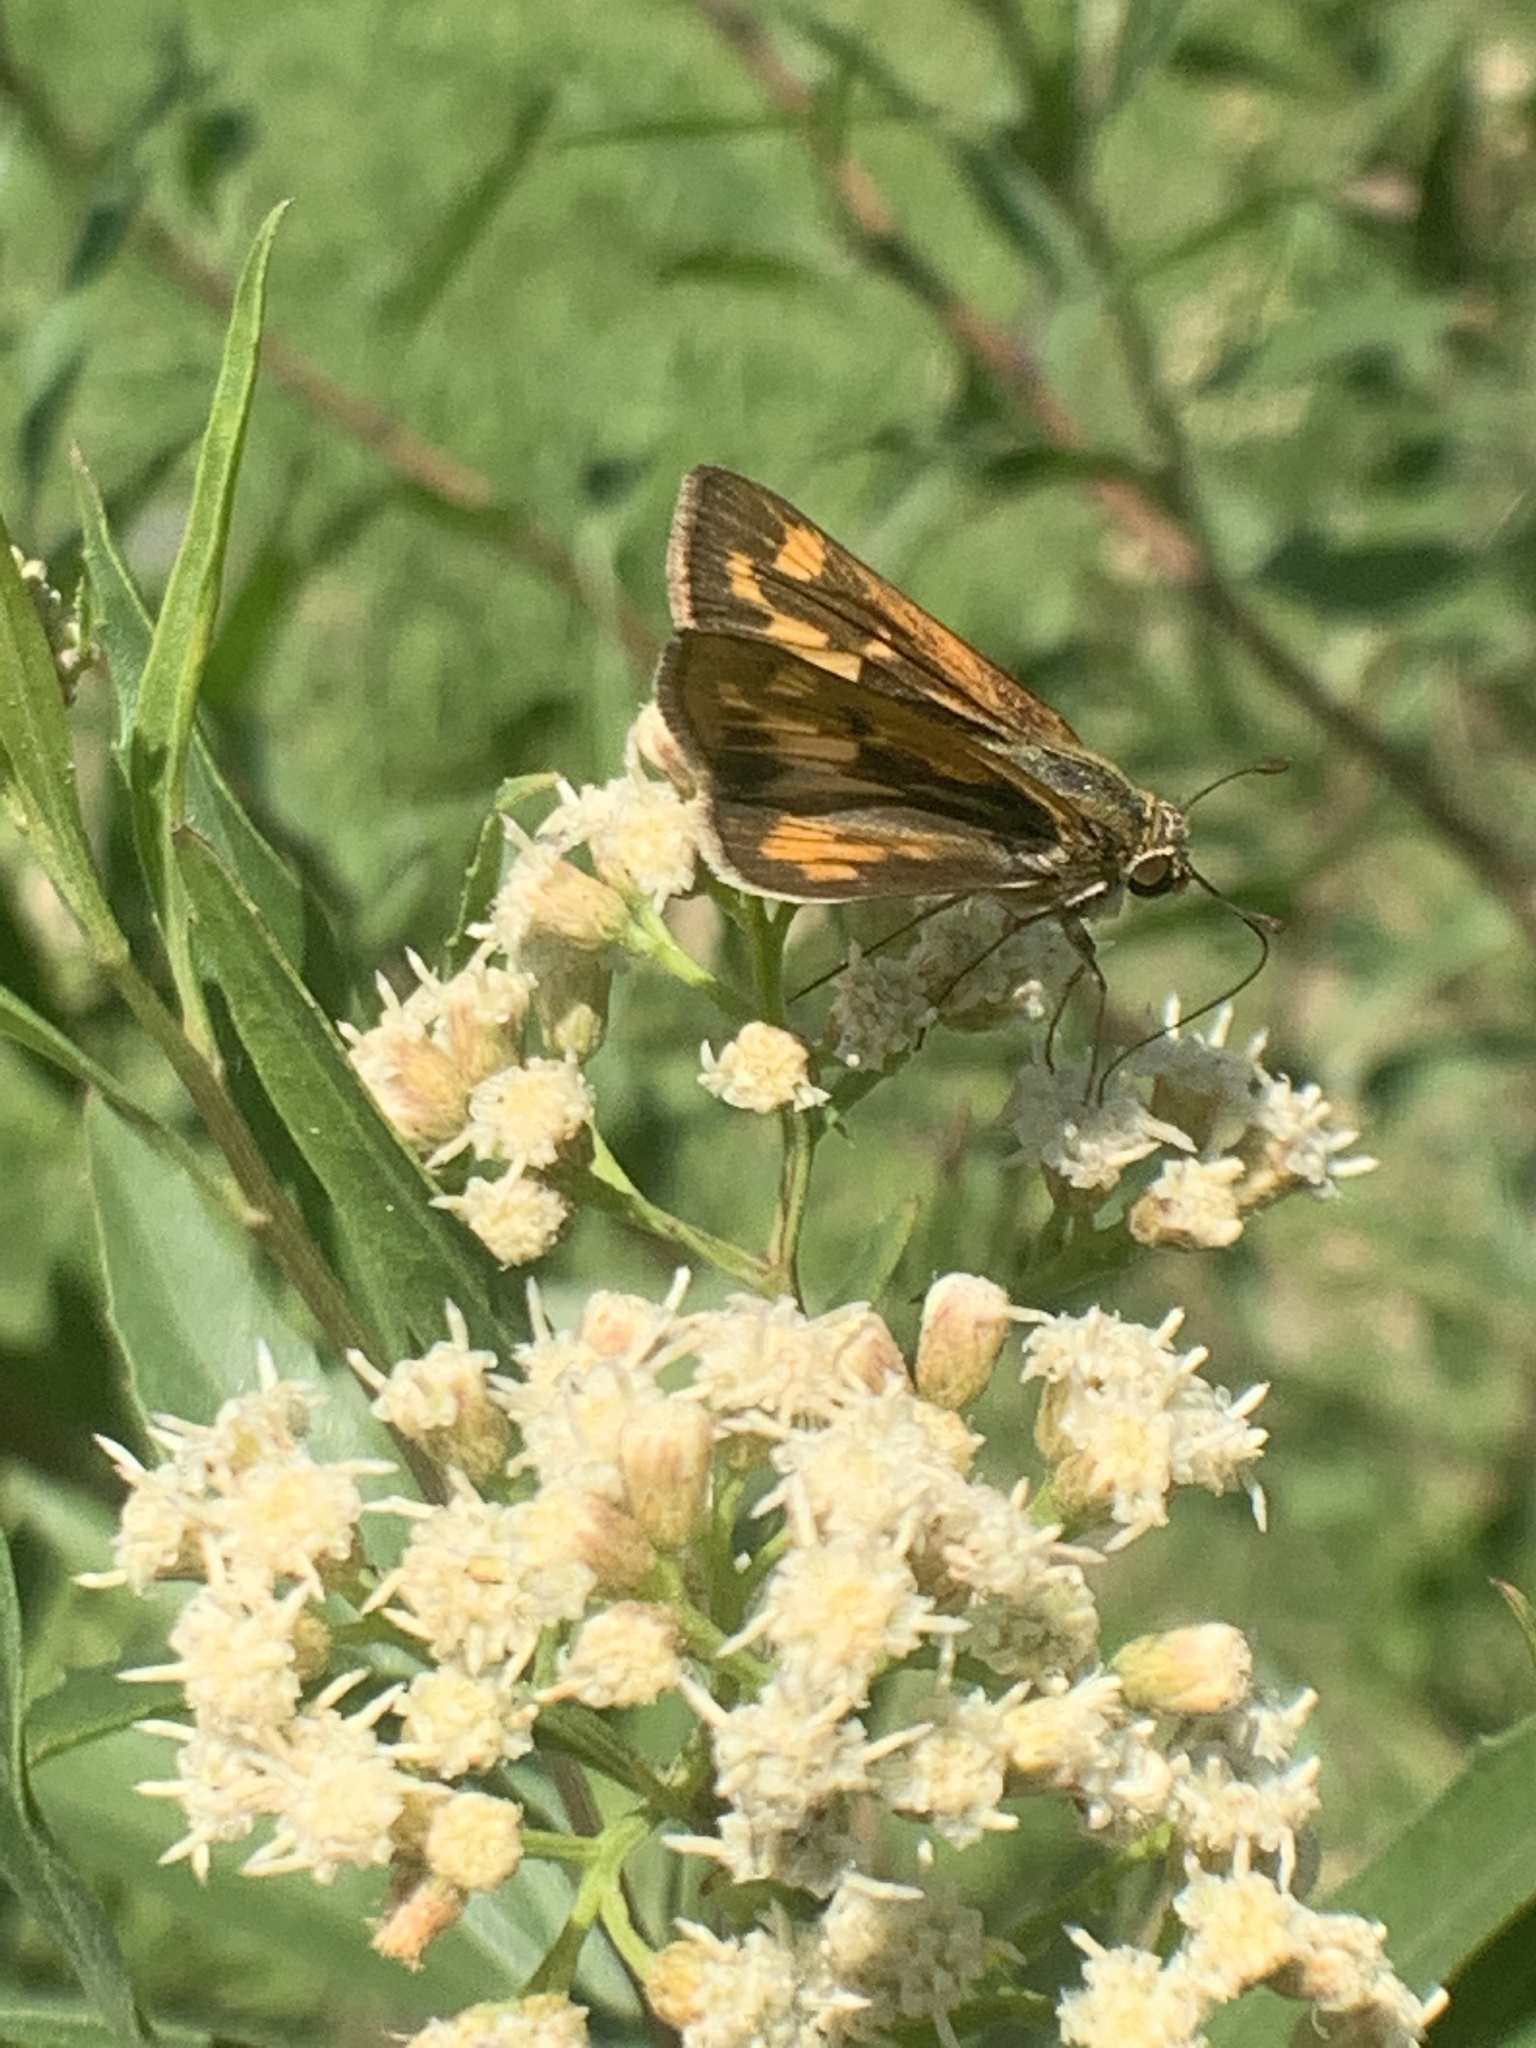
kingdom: Animalia
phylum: Arthropoda
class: Insecta
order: Lepidoptera
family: Hesperiidae
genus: Hylephila
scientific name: Hylephila phyleus
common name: Fiery skipper
